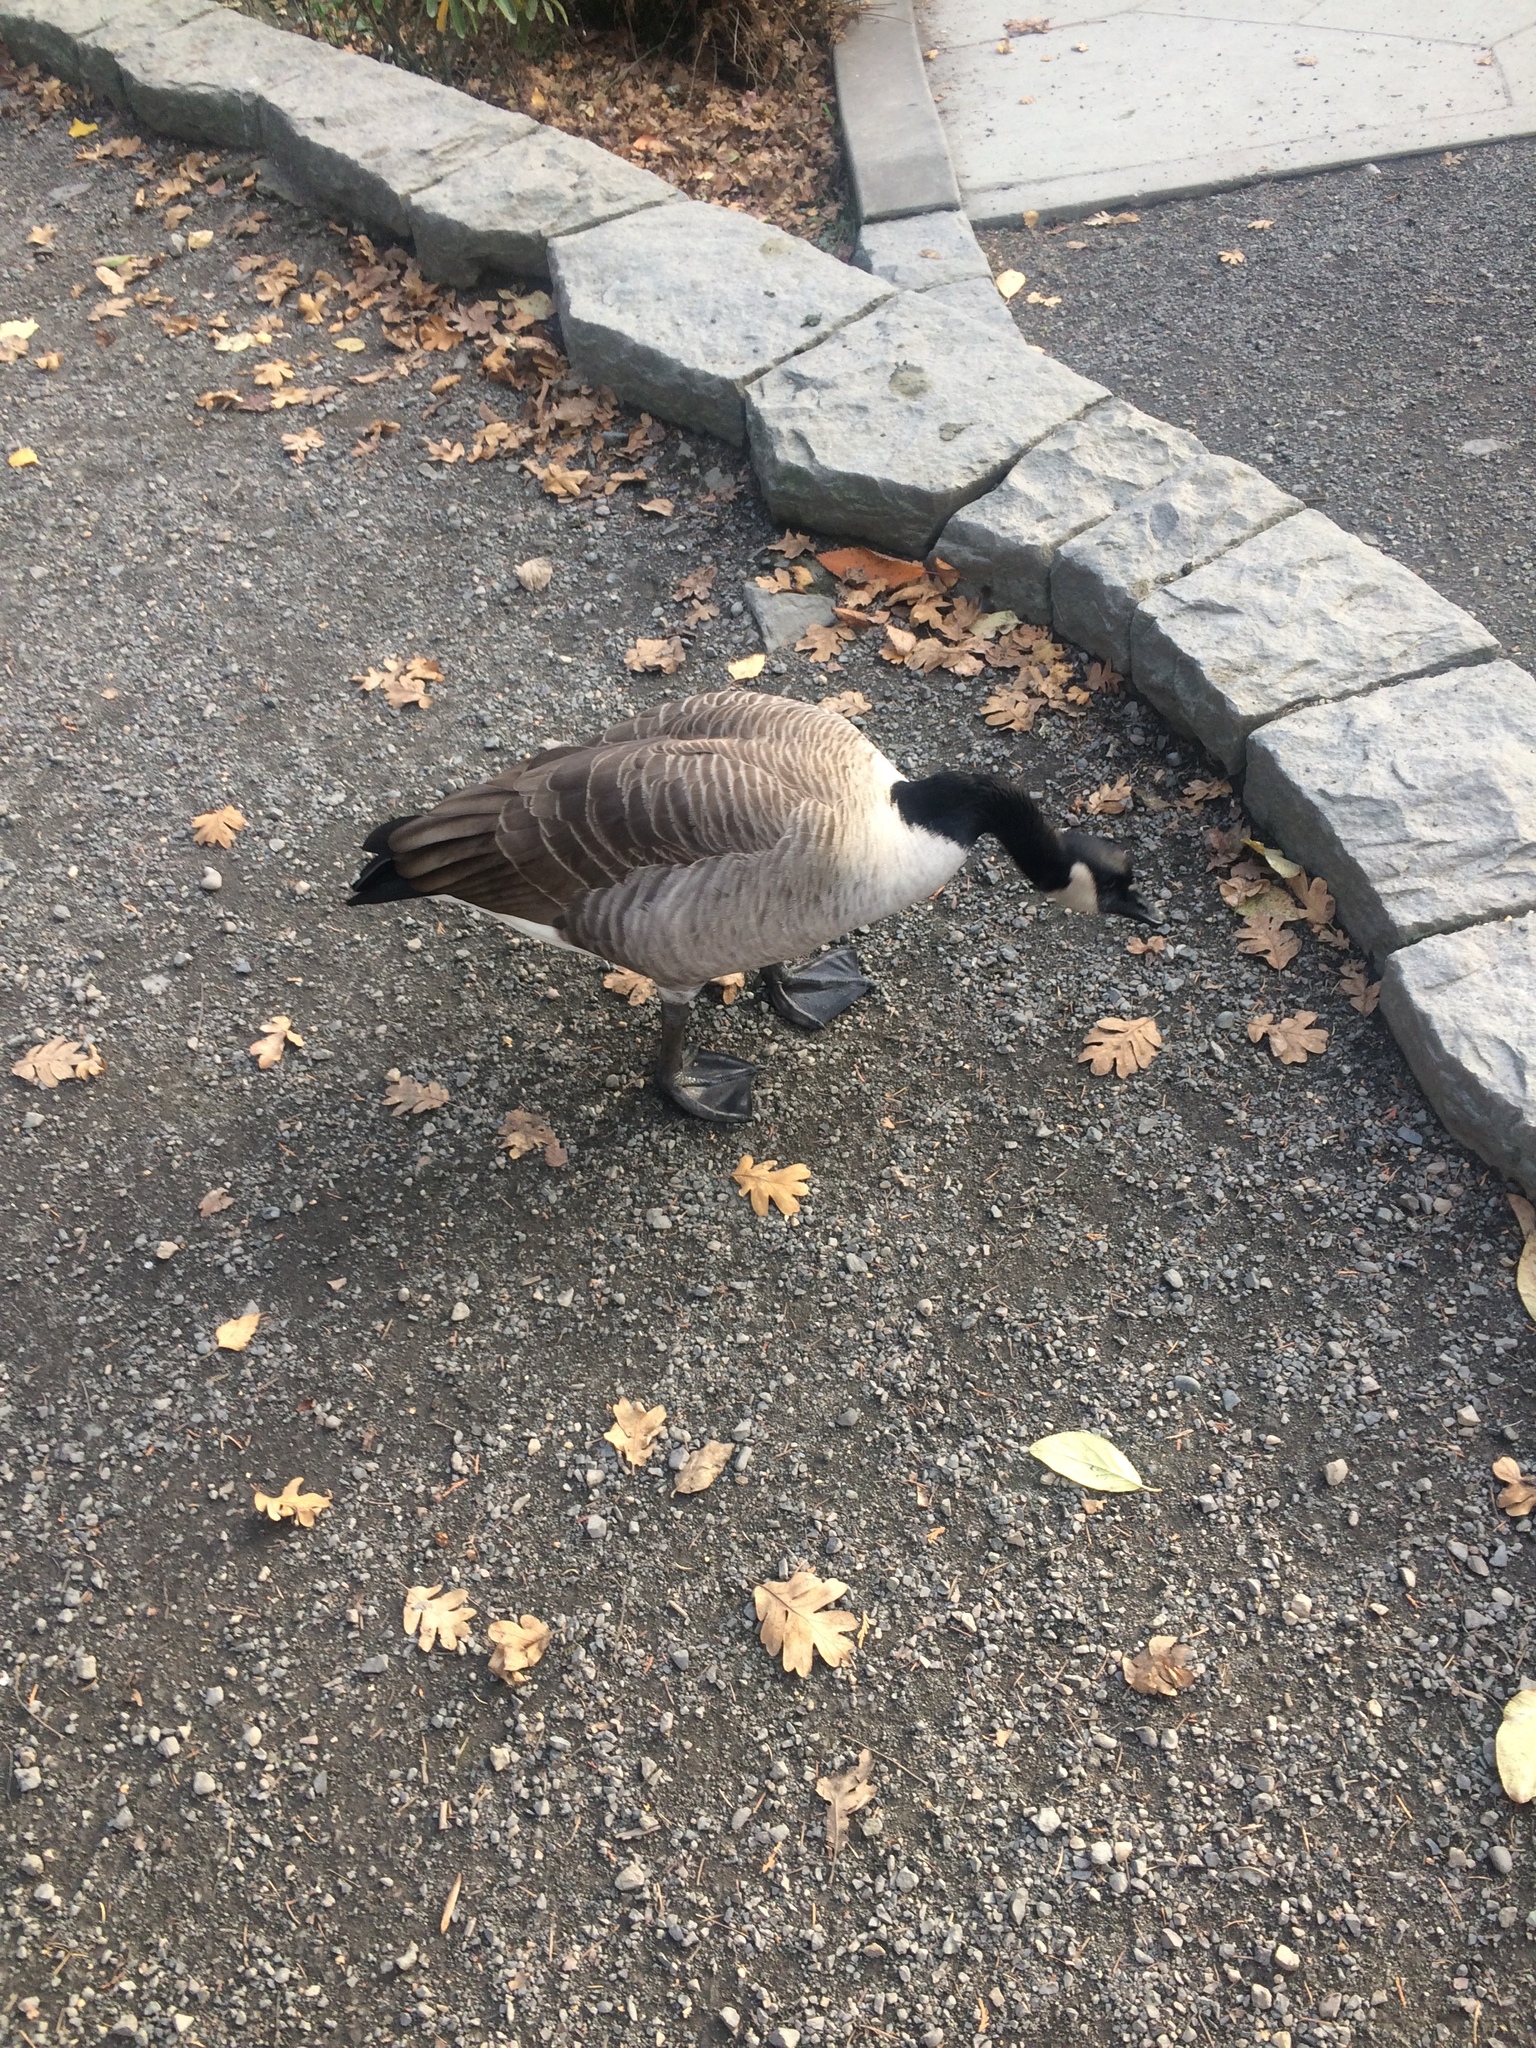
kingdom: Animalia
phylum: Chordata
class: Aves
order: Anseriformes
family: Anatidae
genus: Branta
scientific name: Branta canadensis
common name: Canada goose
